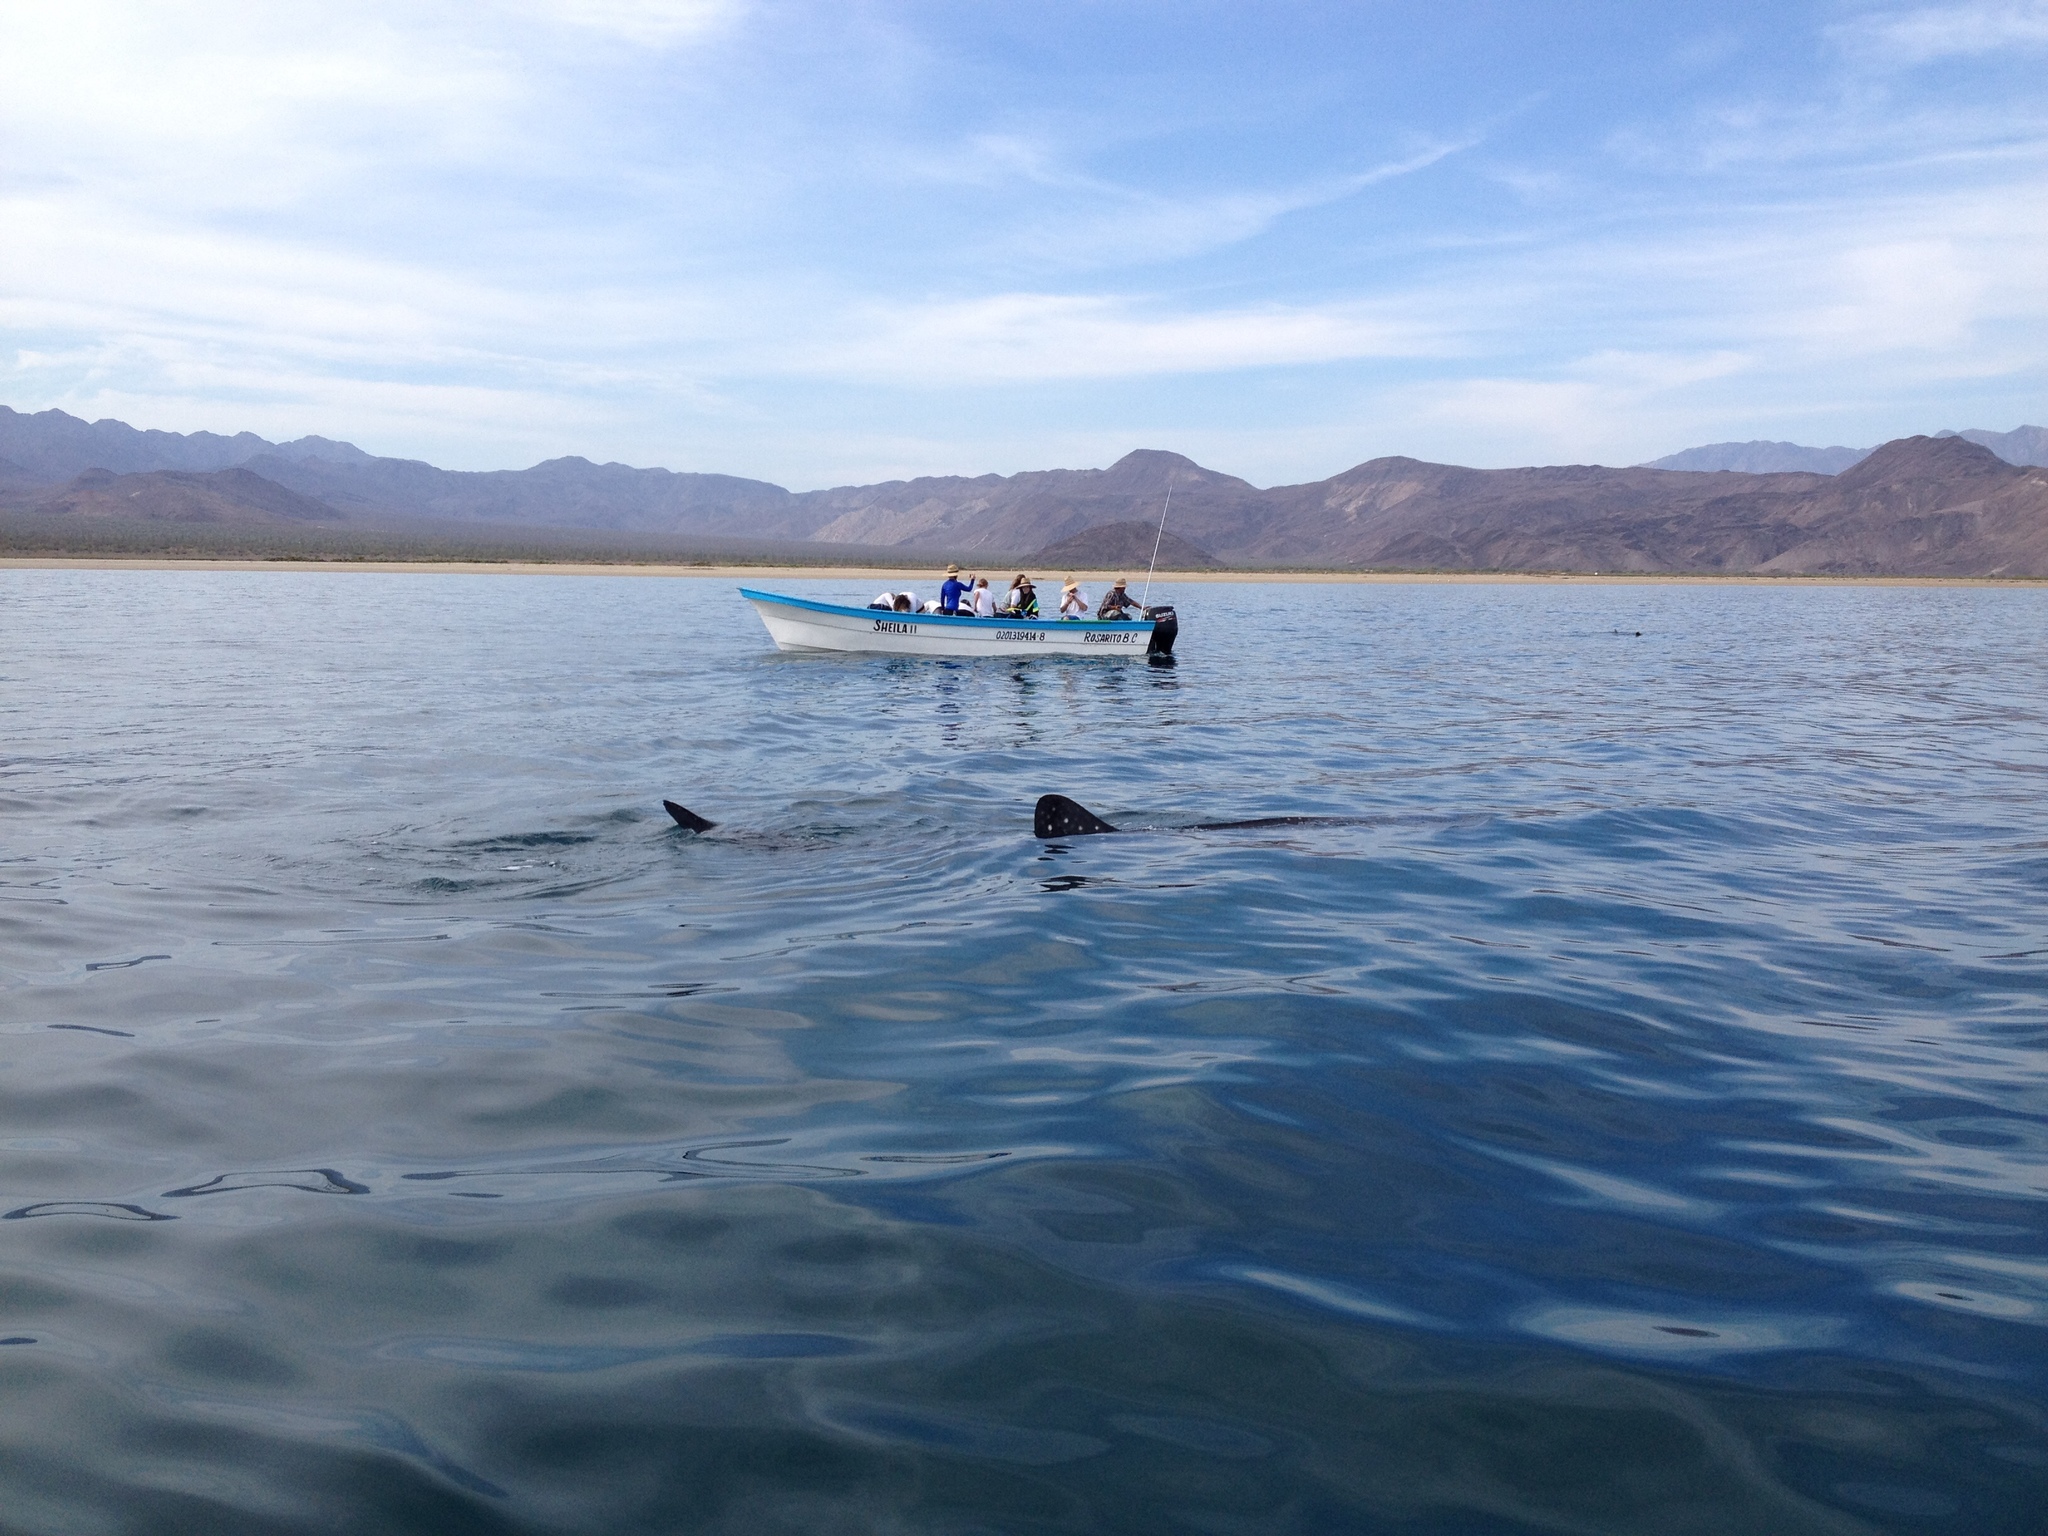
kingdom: Animalia
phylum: Chordata
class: Elasmobranchii
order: Orectolobiformes
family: Rhincodontidae
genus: Rhincodon
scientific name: Rhincodon typus
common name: Whale shark
